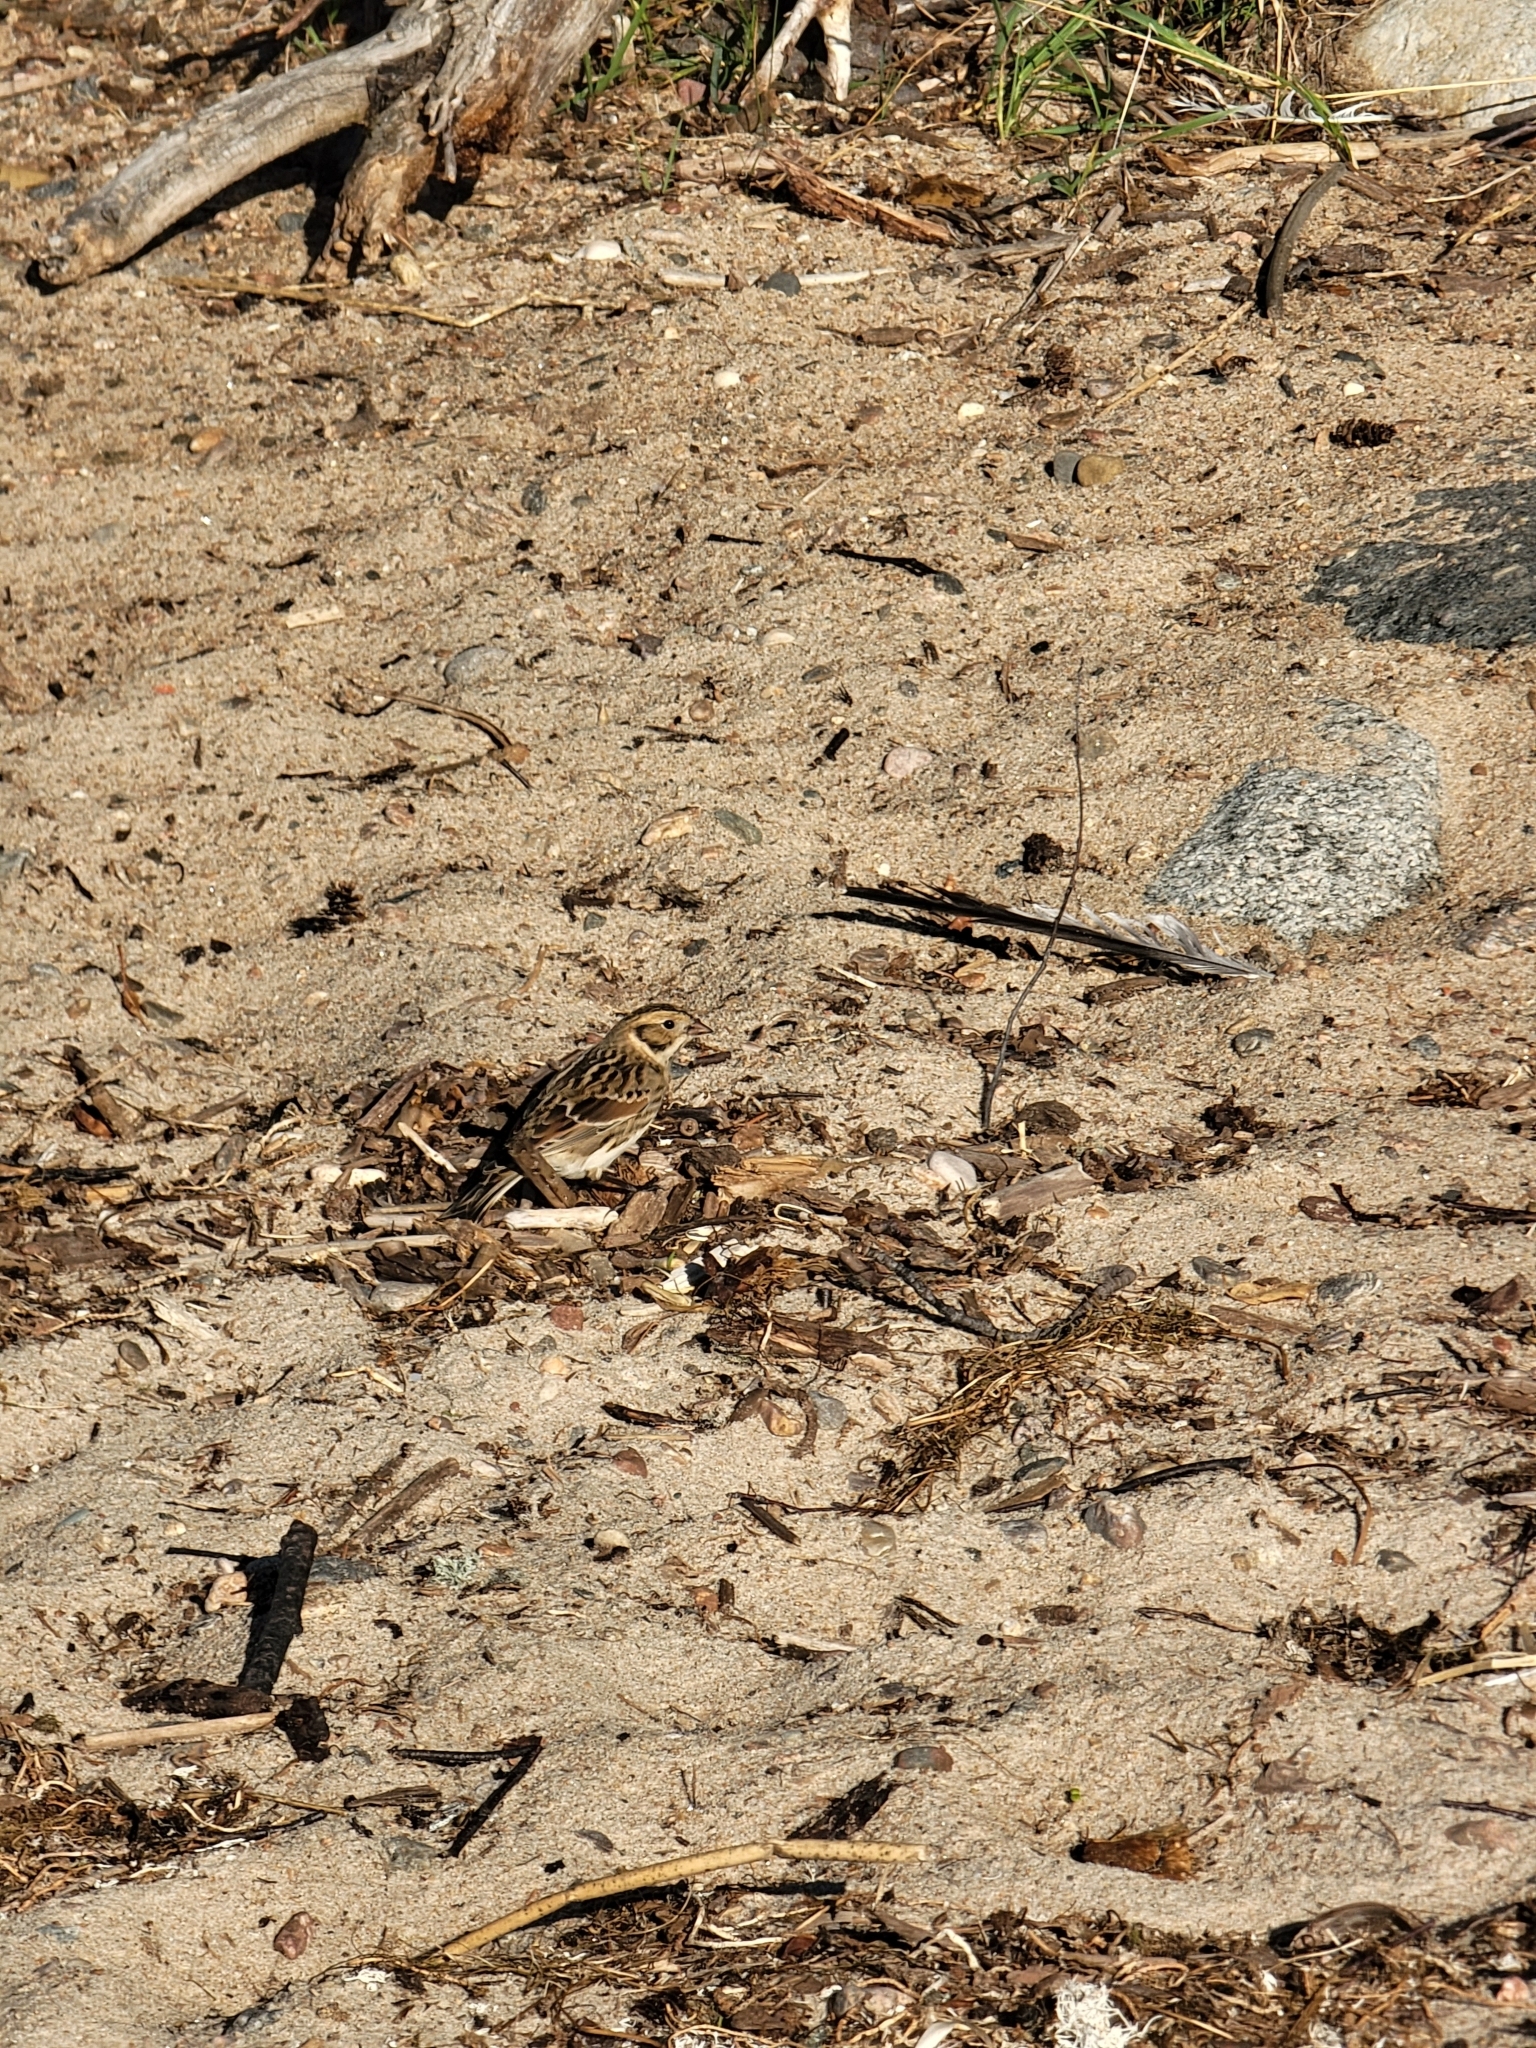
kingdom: Animalia
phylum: Chordata
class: Aves
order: Passeriformes
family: Calcariidae
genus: Calcarius
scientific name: Calcarius lapponicus
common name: Lapland longspur
